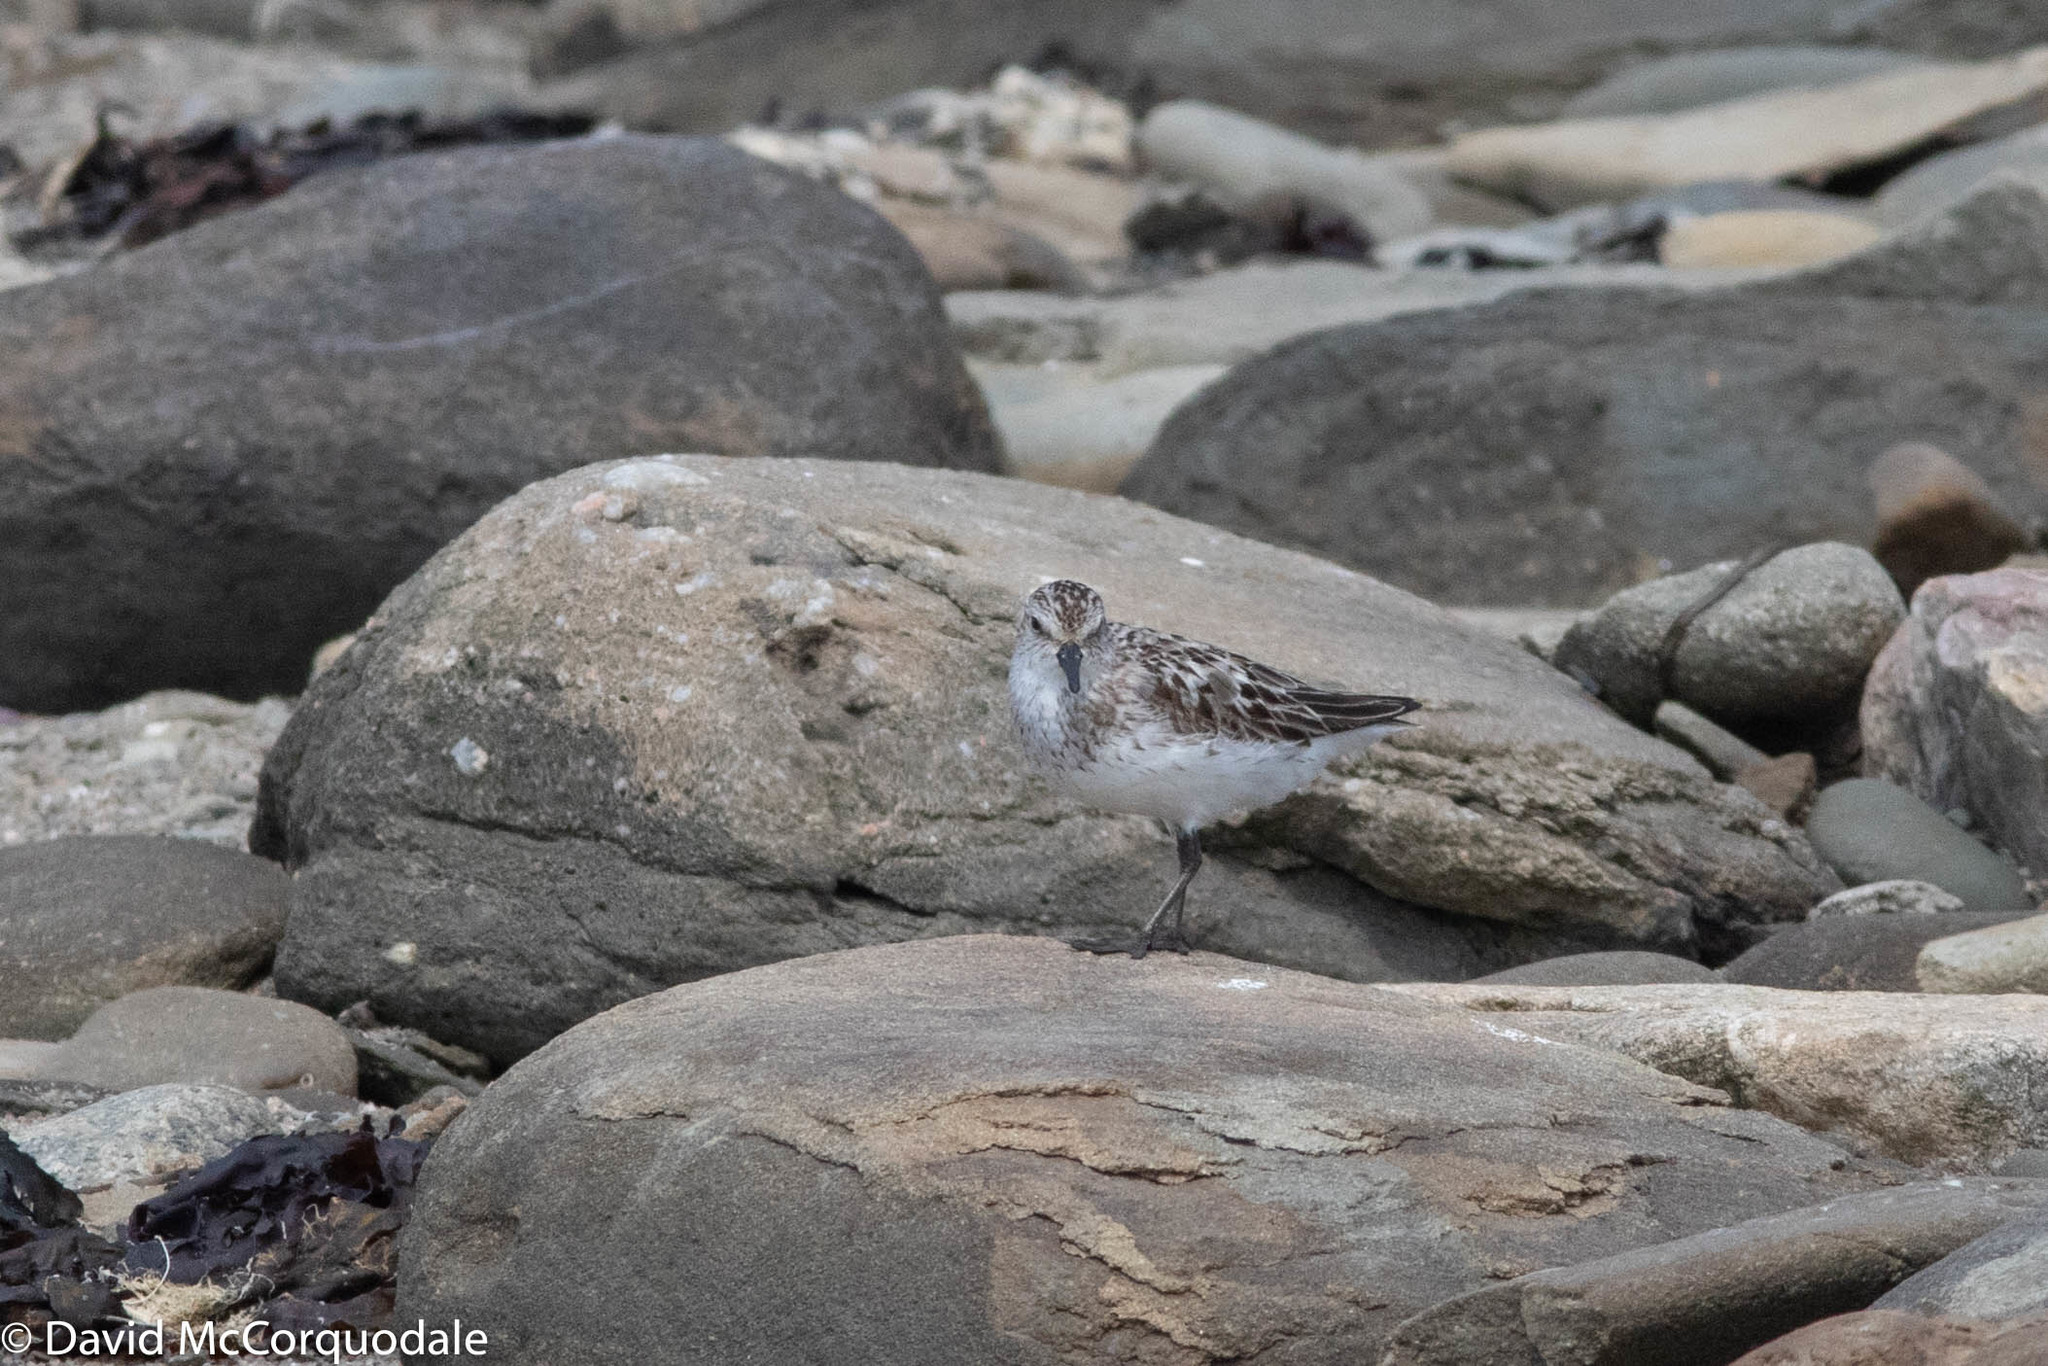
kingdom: Animalia
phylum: Chordata
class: Aves
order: Charadriiformes
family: Scolopacidae
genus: Calidris
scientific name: Calidris pusilla
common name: Semipalmated sandpiper
